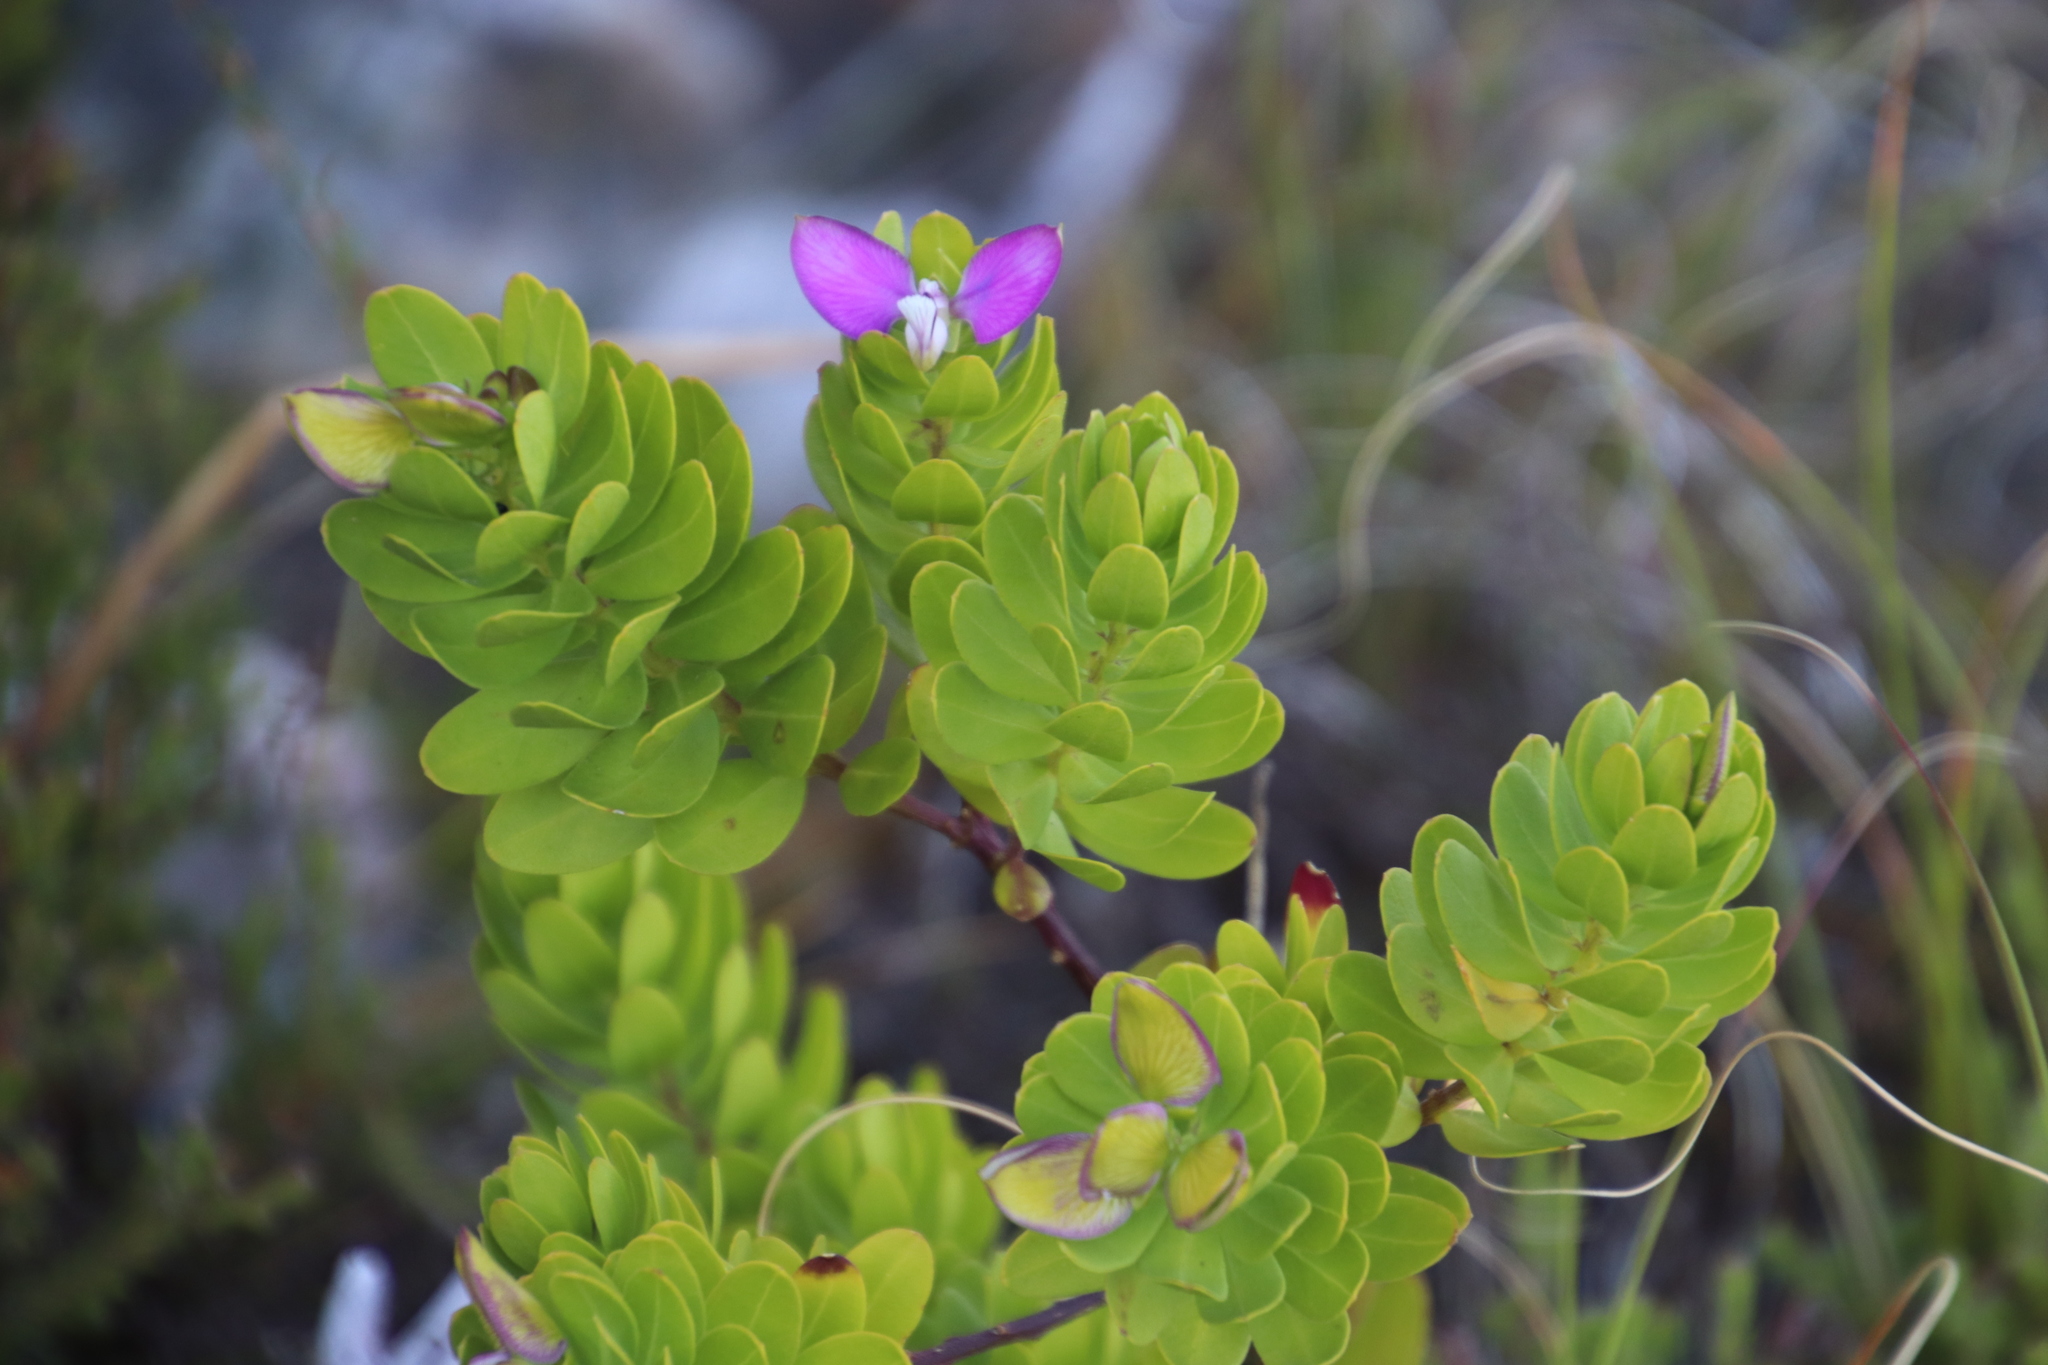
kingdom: Plantae
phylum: Tracheophyta
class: Magnoliopsida
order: Fabales
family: Polygalaceae
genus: Polygala
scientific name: Polygala myrtifolia
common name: Myrtle-leaf milkwort
